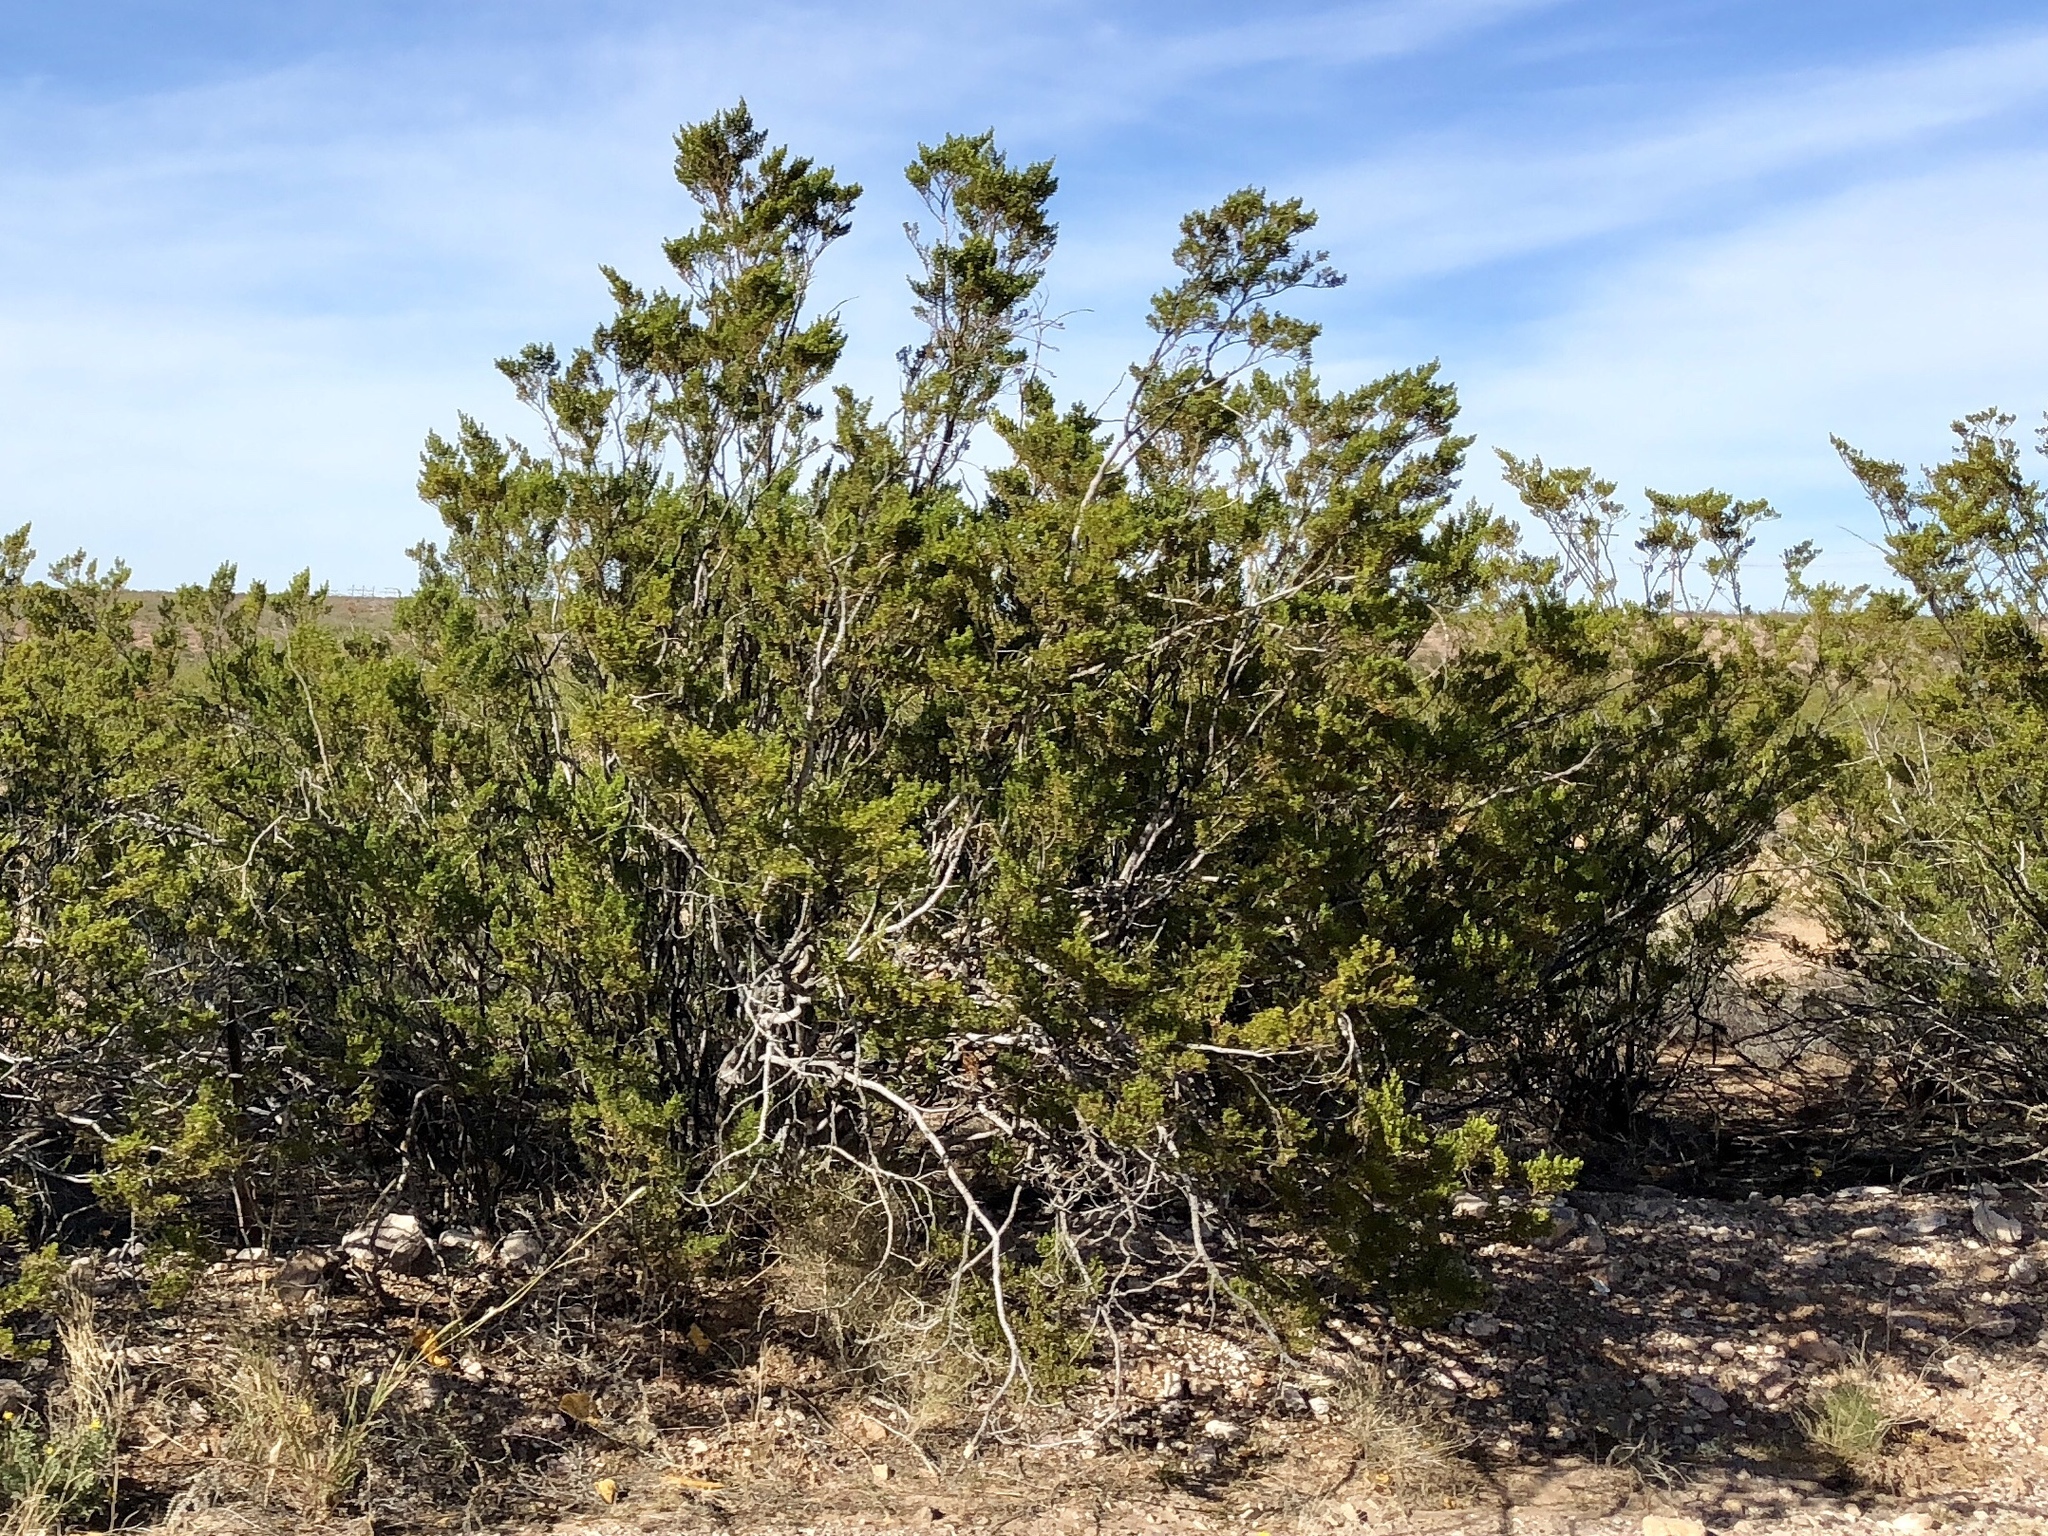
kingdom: Plantae
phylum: Tracheophyta
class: Magnoliopsida
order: Zygophyllales
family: Zygophyllaceae
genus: Larrea
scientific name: Larrea tridentata
